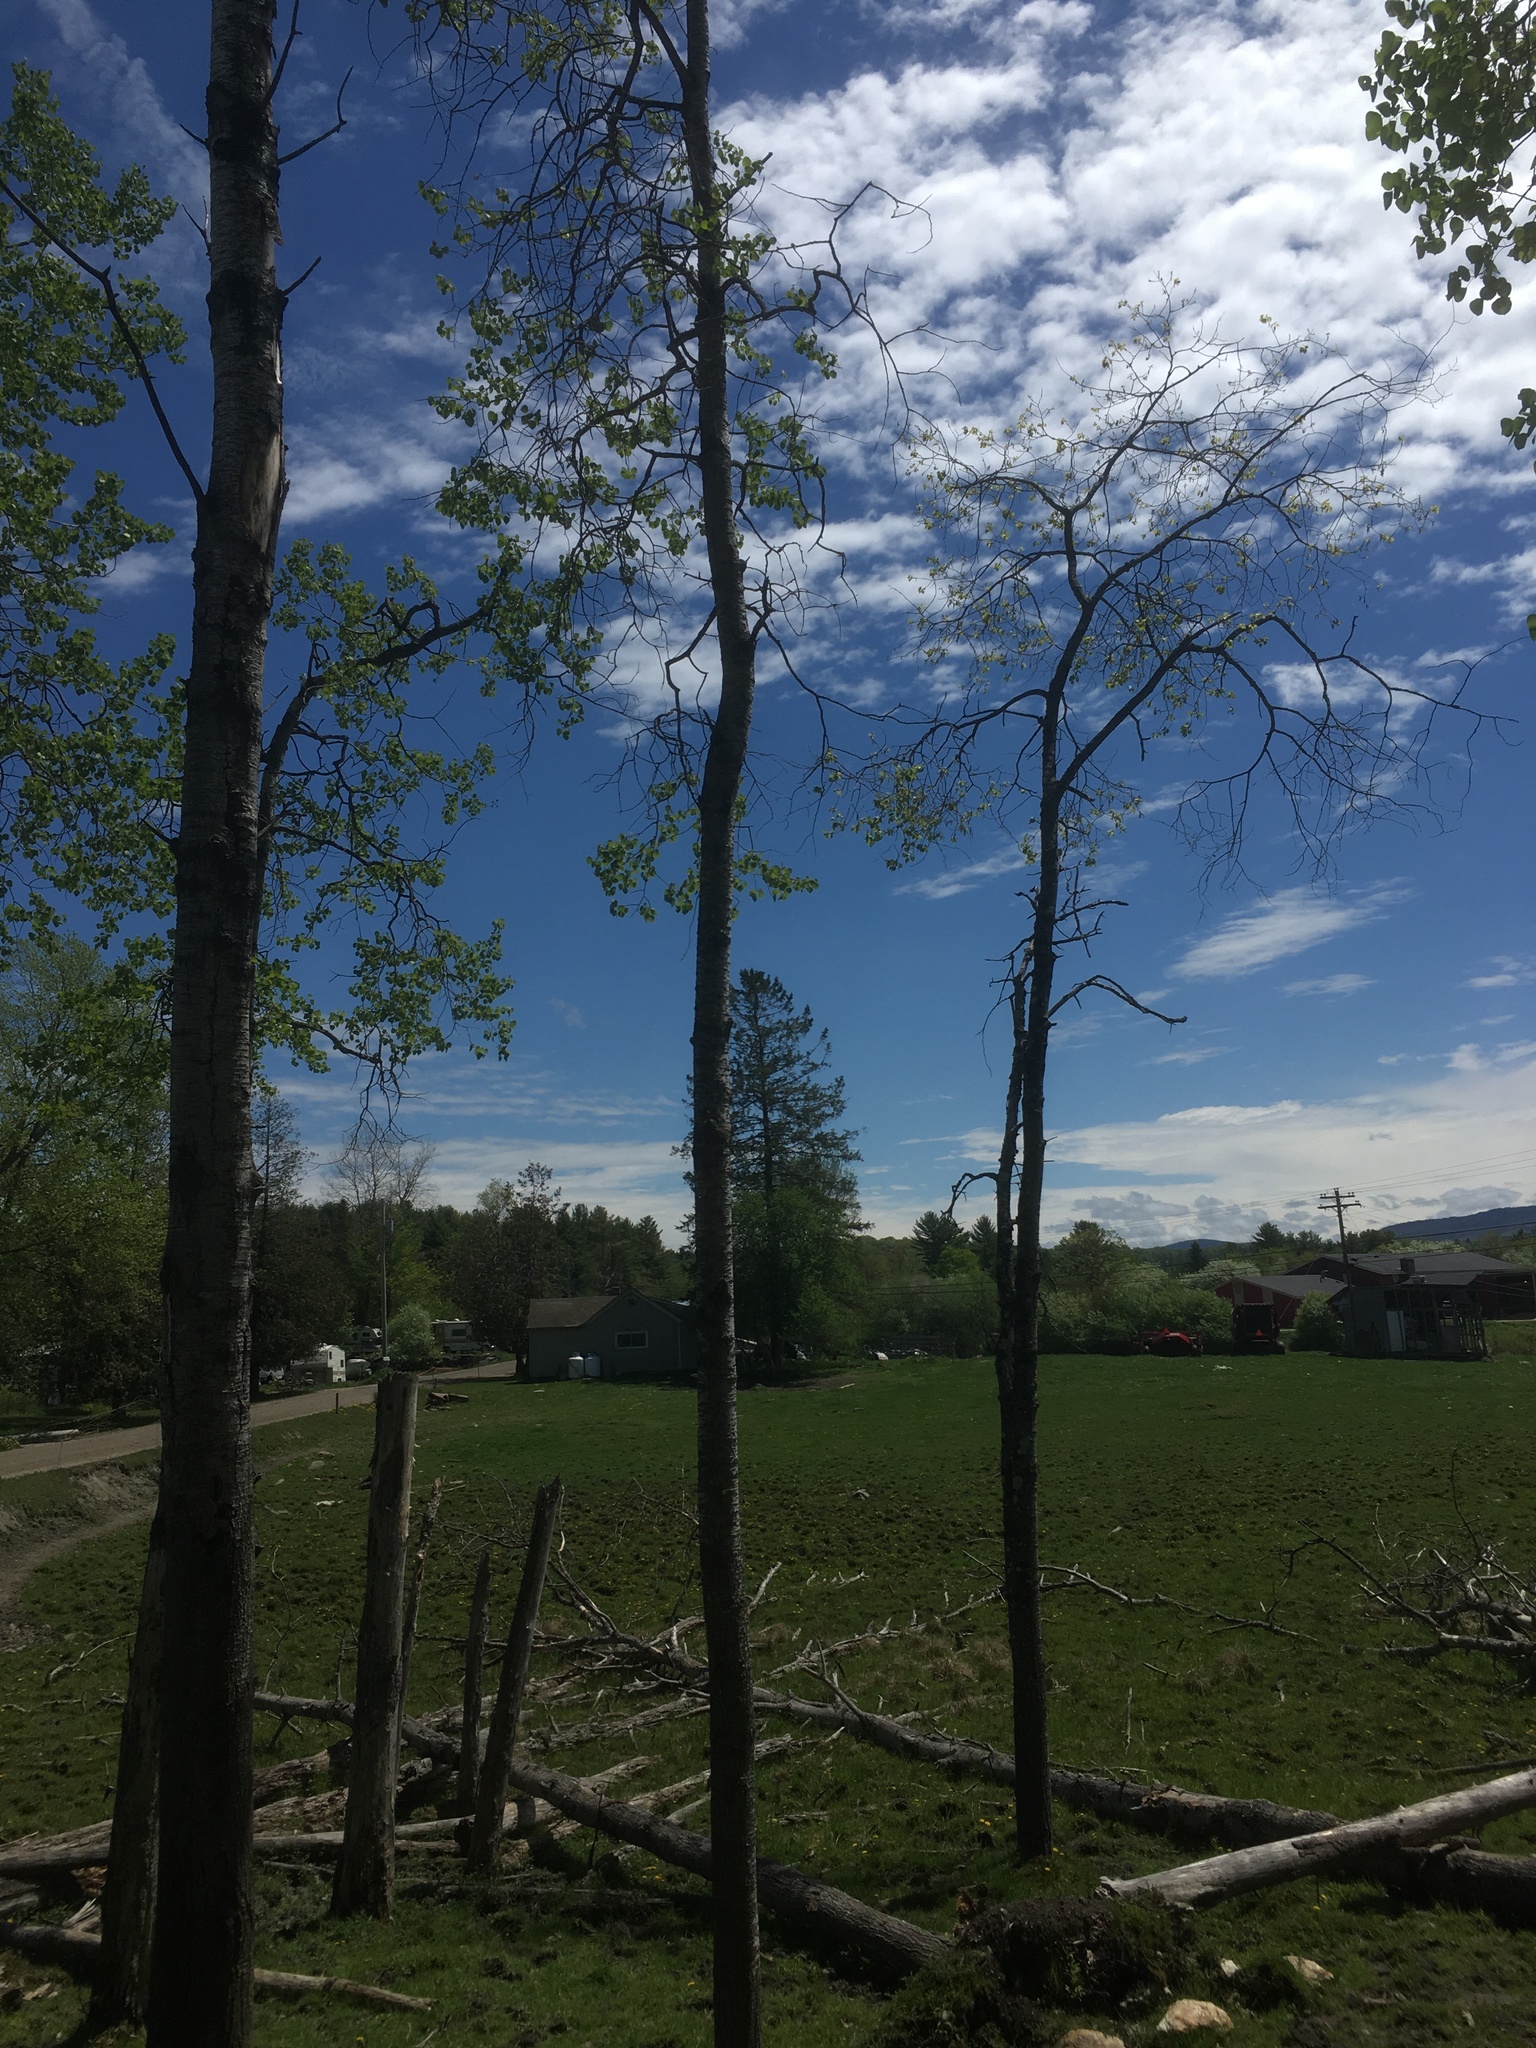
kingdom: Plantae
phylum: Tracheophyta
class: Magnoliopsida
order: Malpighiales
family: Salicaceae
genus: Populus
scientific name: Populus tremuloides
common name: Quaking aspen
